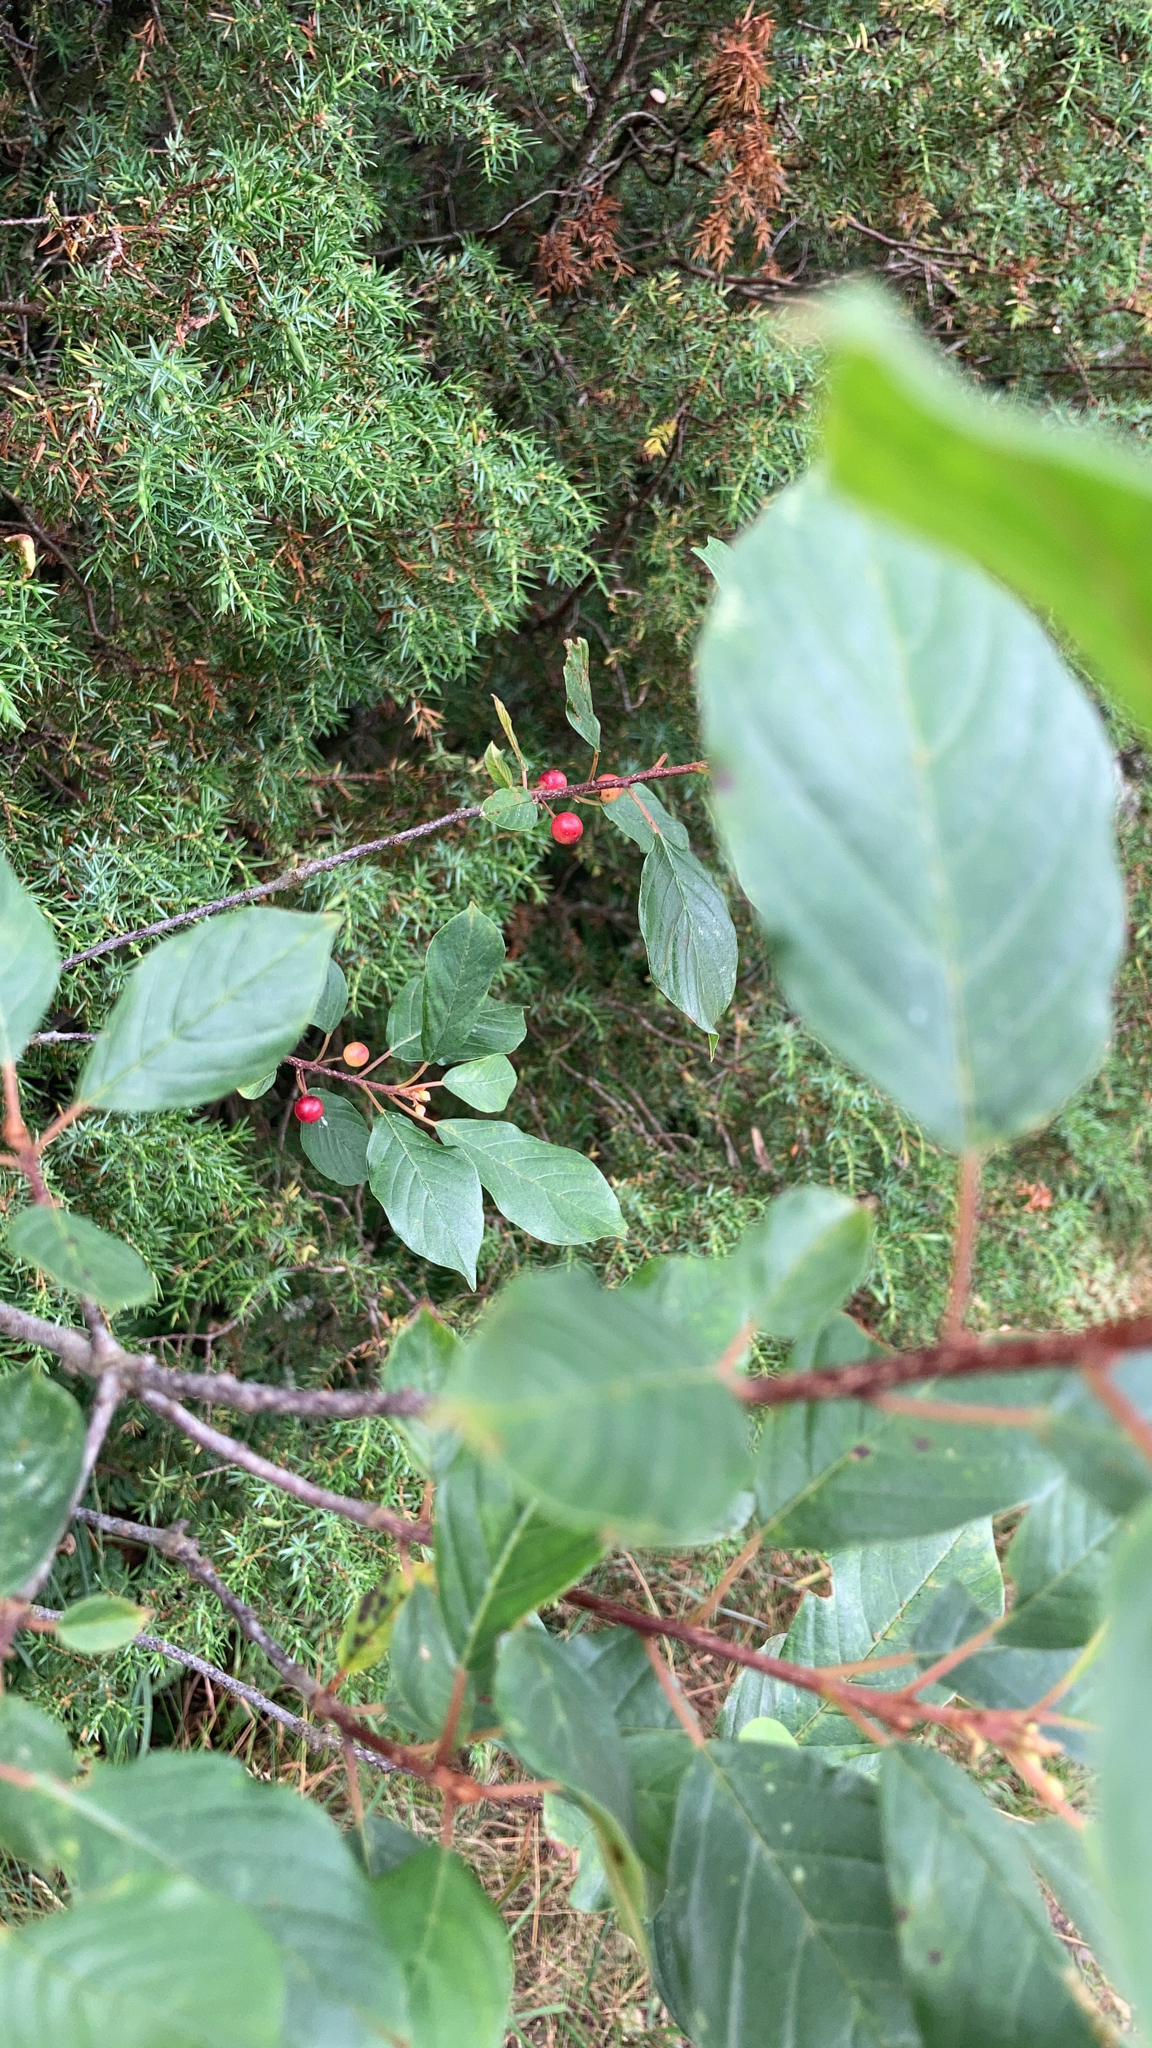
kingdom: Plantae
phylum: Tracheophyta
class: Magnoliopsida
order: Rosales
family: Rhamnaceae
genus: Frangula
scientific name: Frangula alnus
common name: Alder buckthorn
